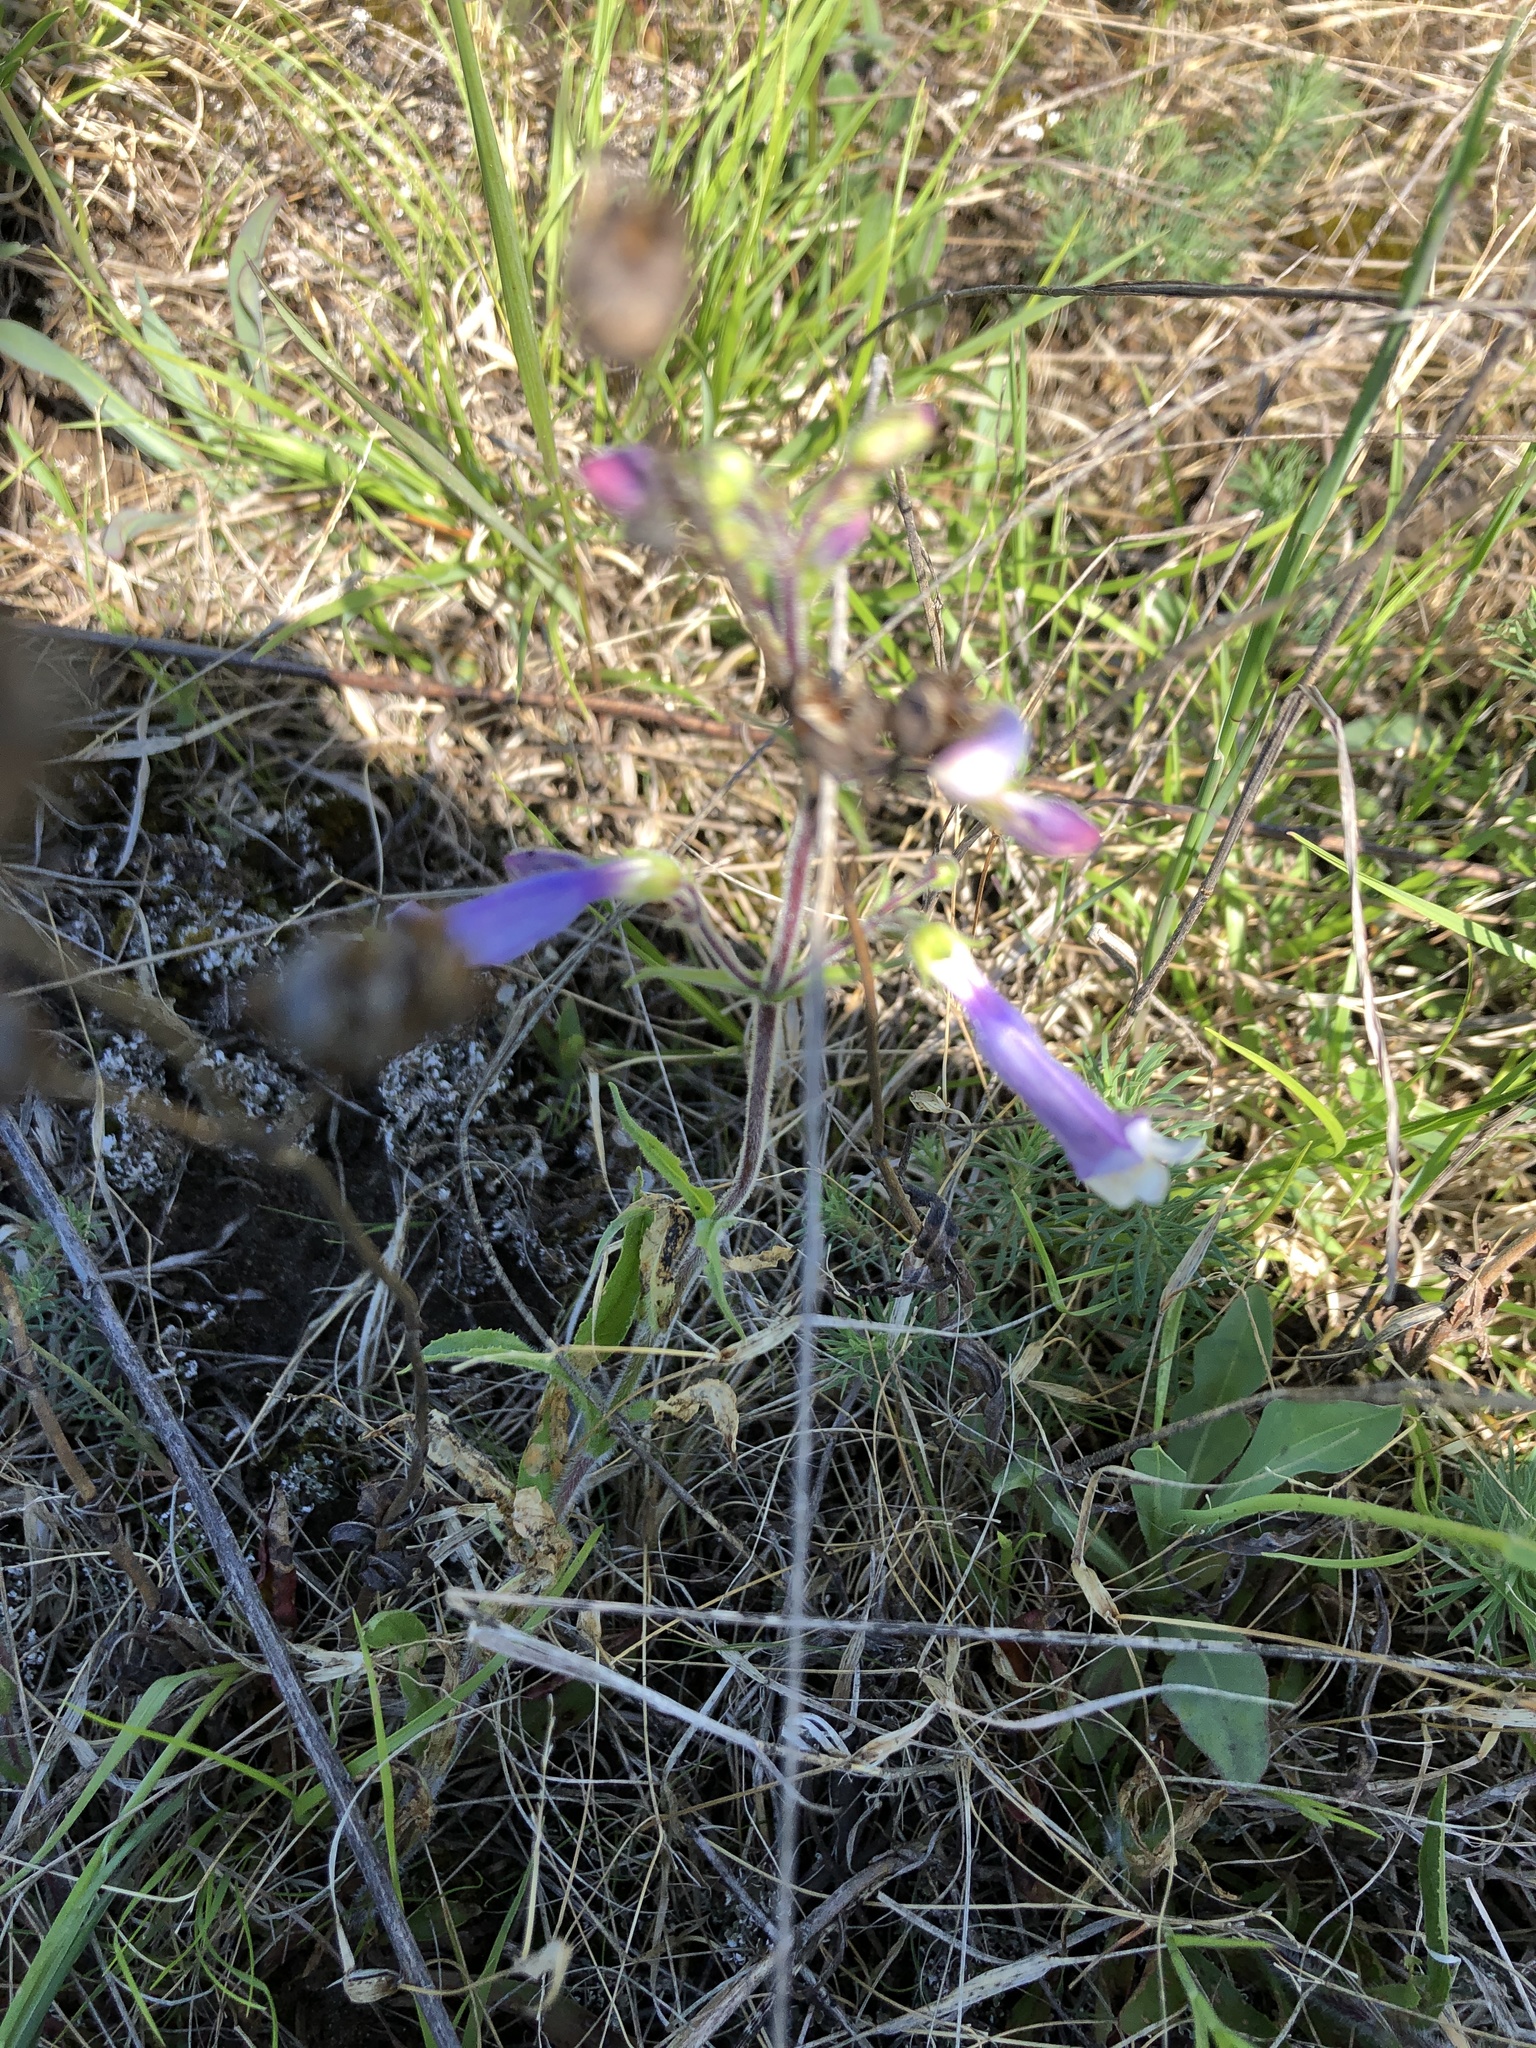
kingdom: Plantae
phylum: Tracheophyta
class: Magnoliopsida
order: Lamiales
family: Plantaginaceae
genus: Penstemon
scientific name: Penstemon hirsutus
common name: Hairy beardtongue
